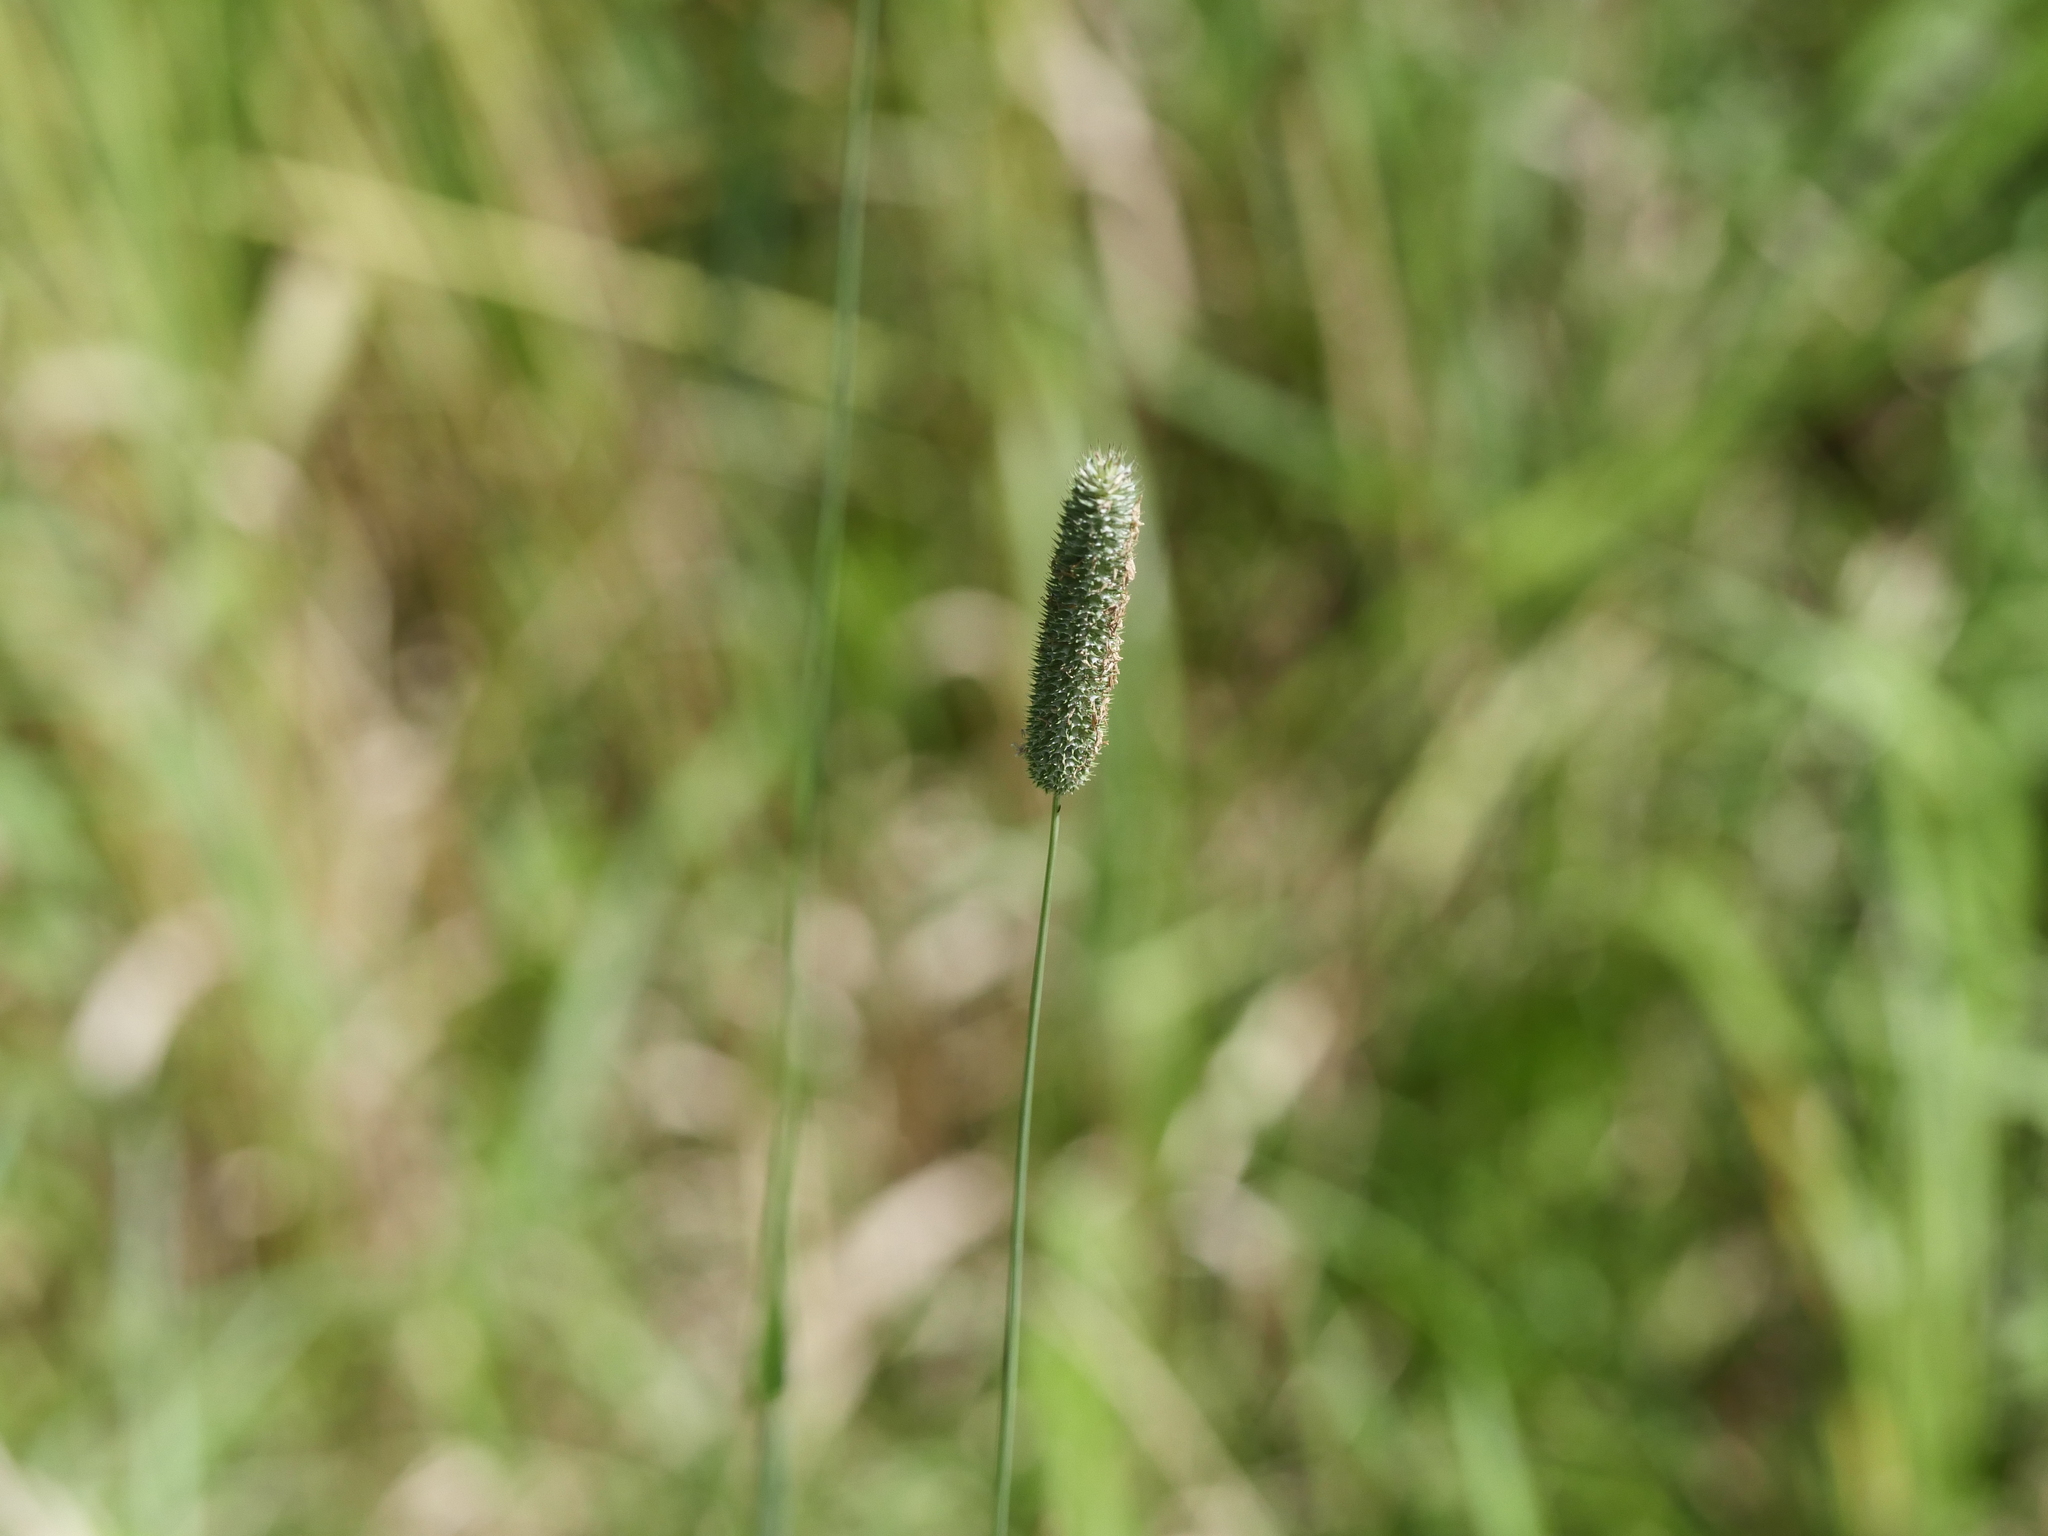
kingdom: Plantae
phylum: Tracheophyta
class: Liliopsida
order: Poales
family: Poaceae
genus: Phleum
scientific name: Phleum pratense
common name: Timothy grass
